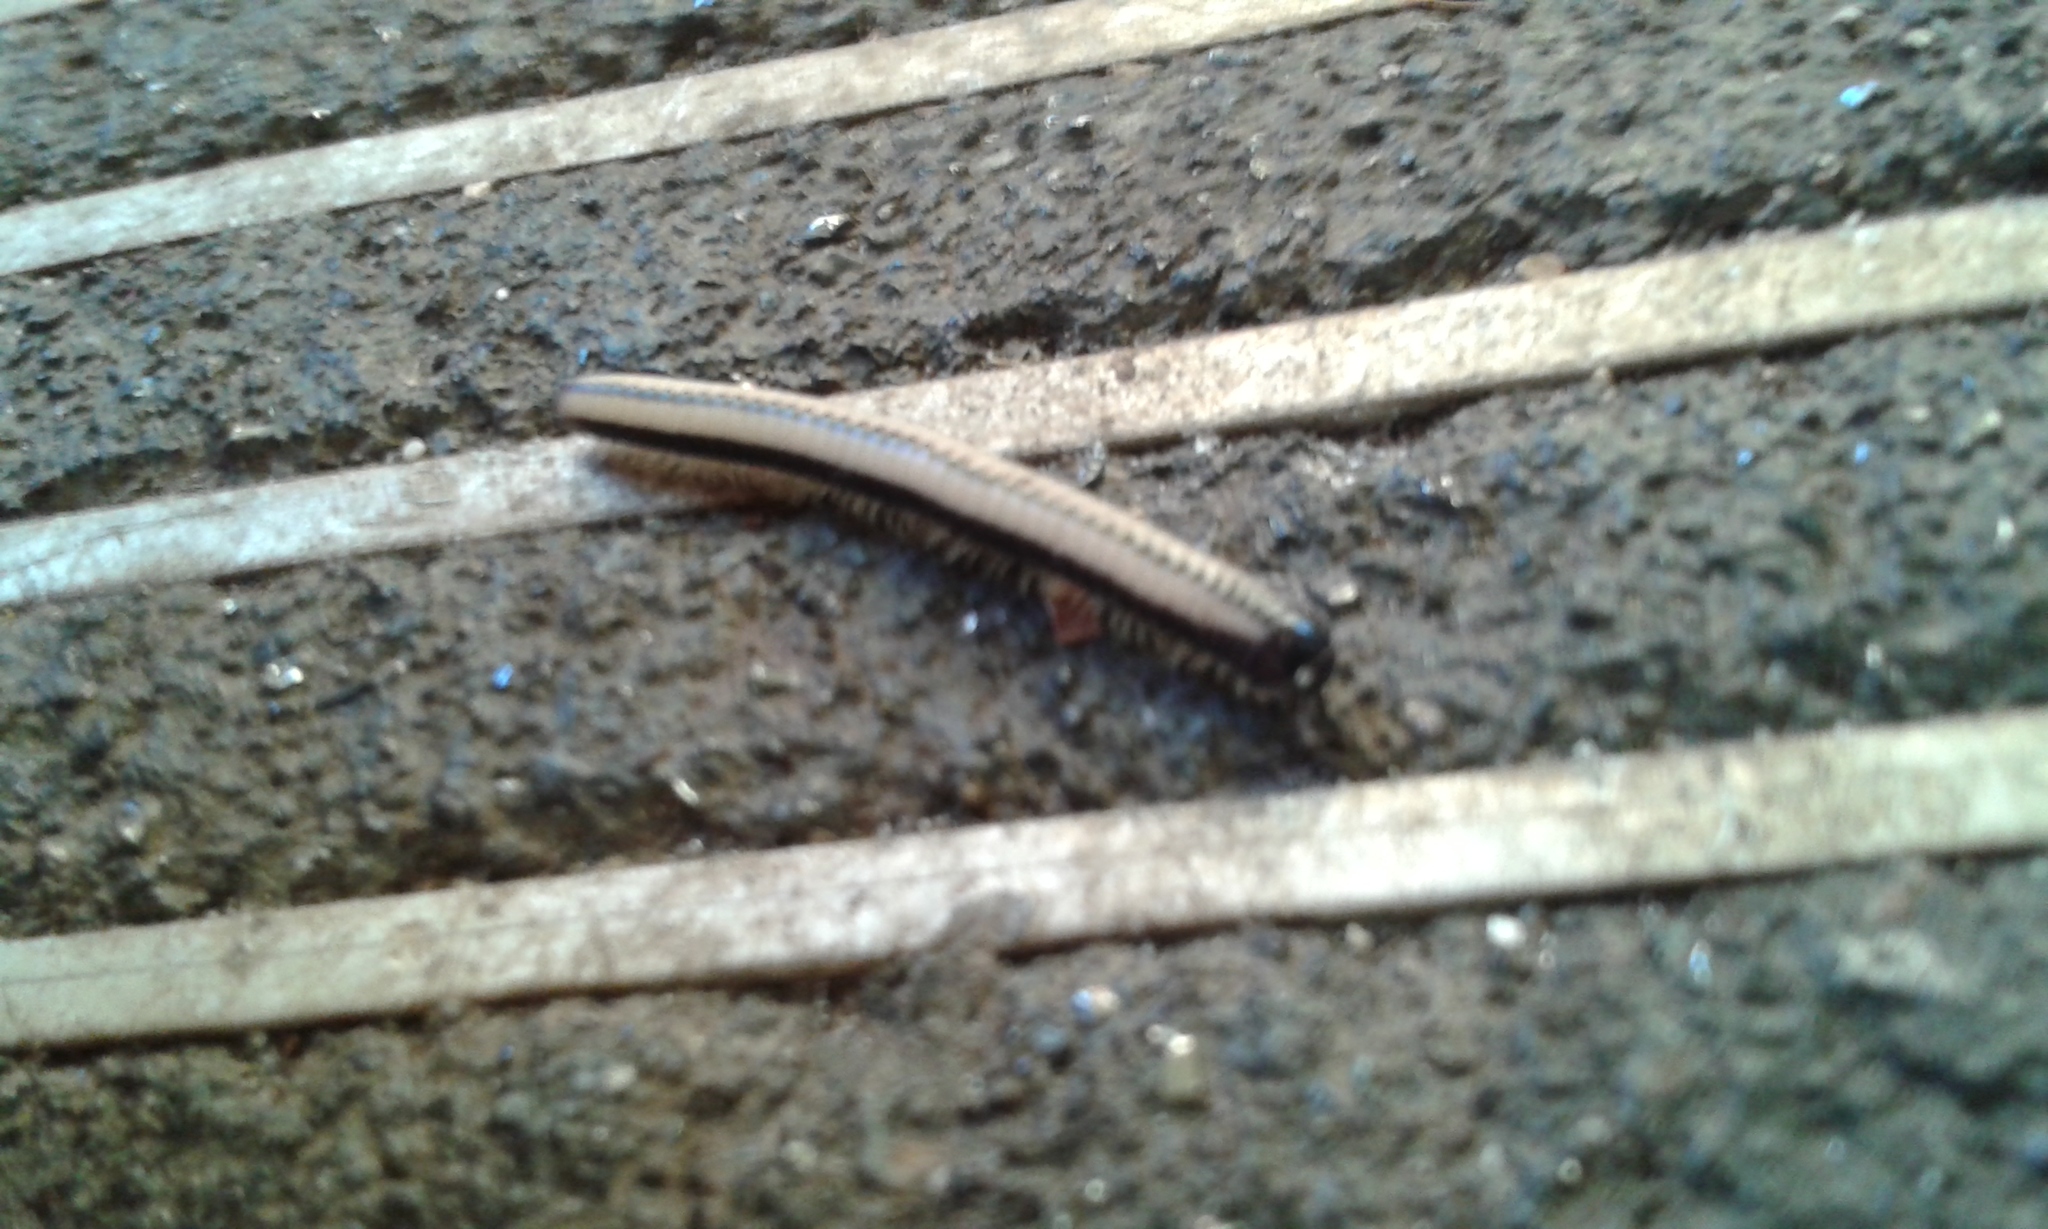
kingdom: Animalia
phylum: Arthropoda
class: Diplopoda
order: Spirobolida
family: Spirobolellidae
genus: Spirobolellus
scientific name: Spirobolellus immigrans
